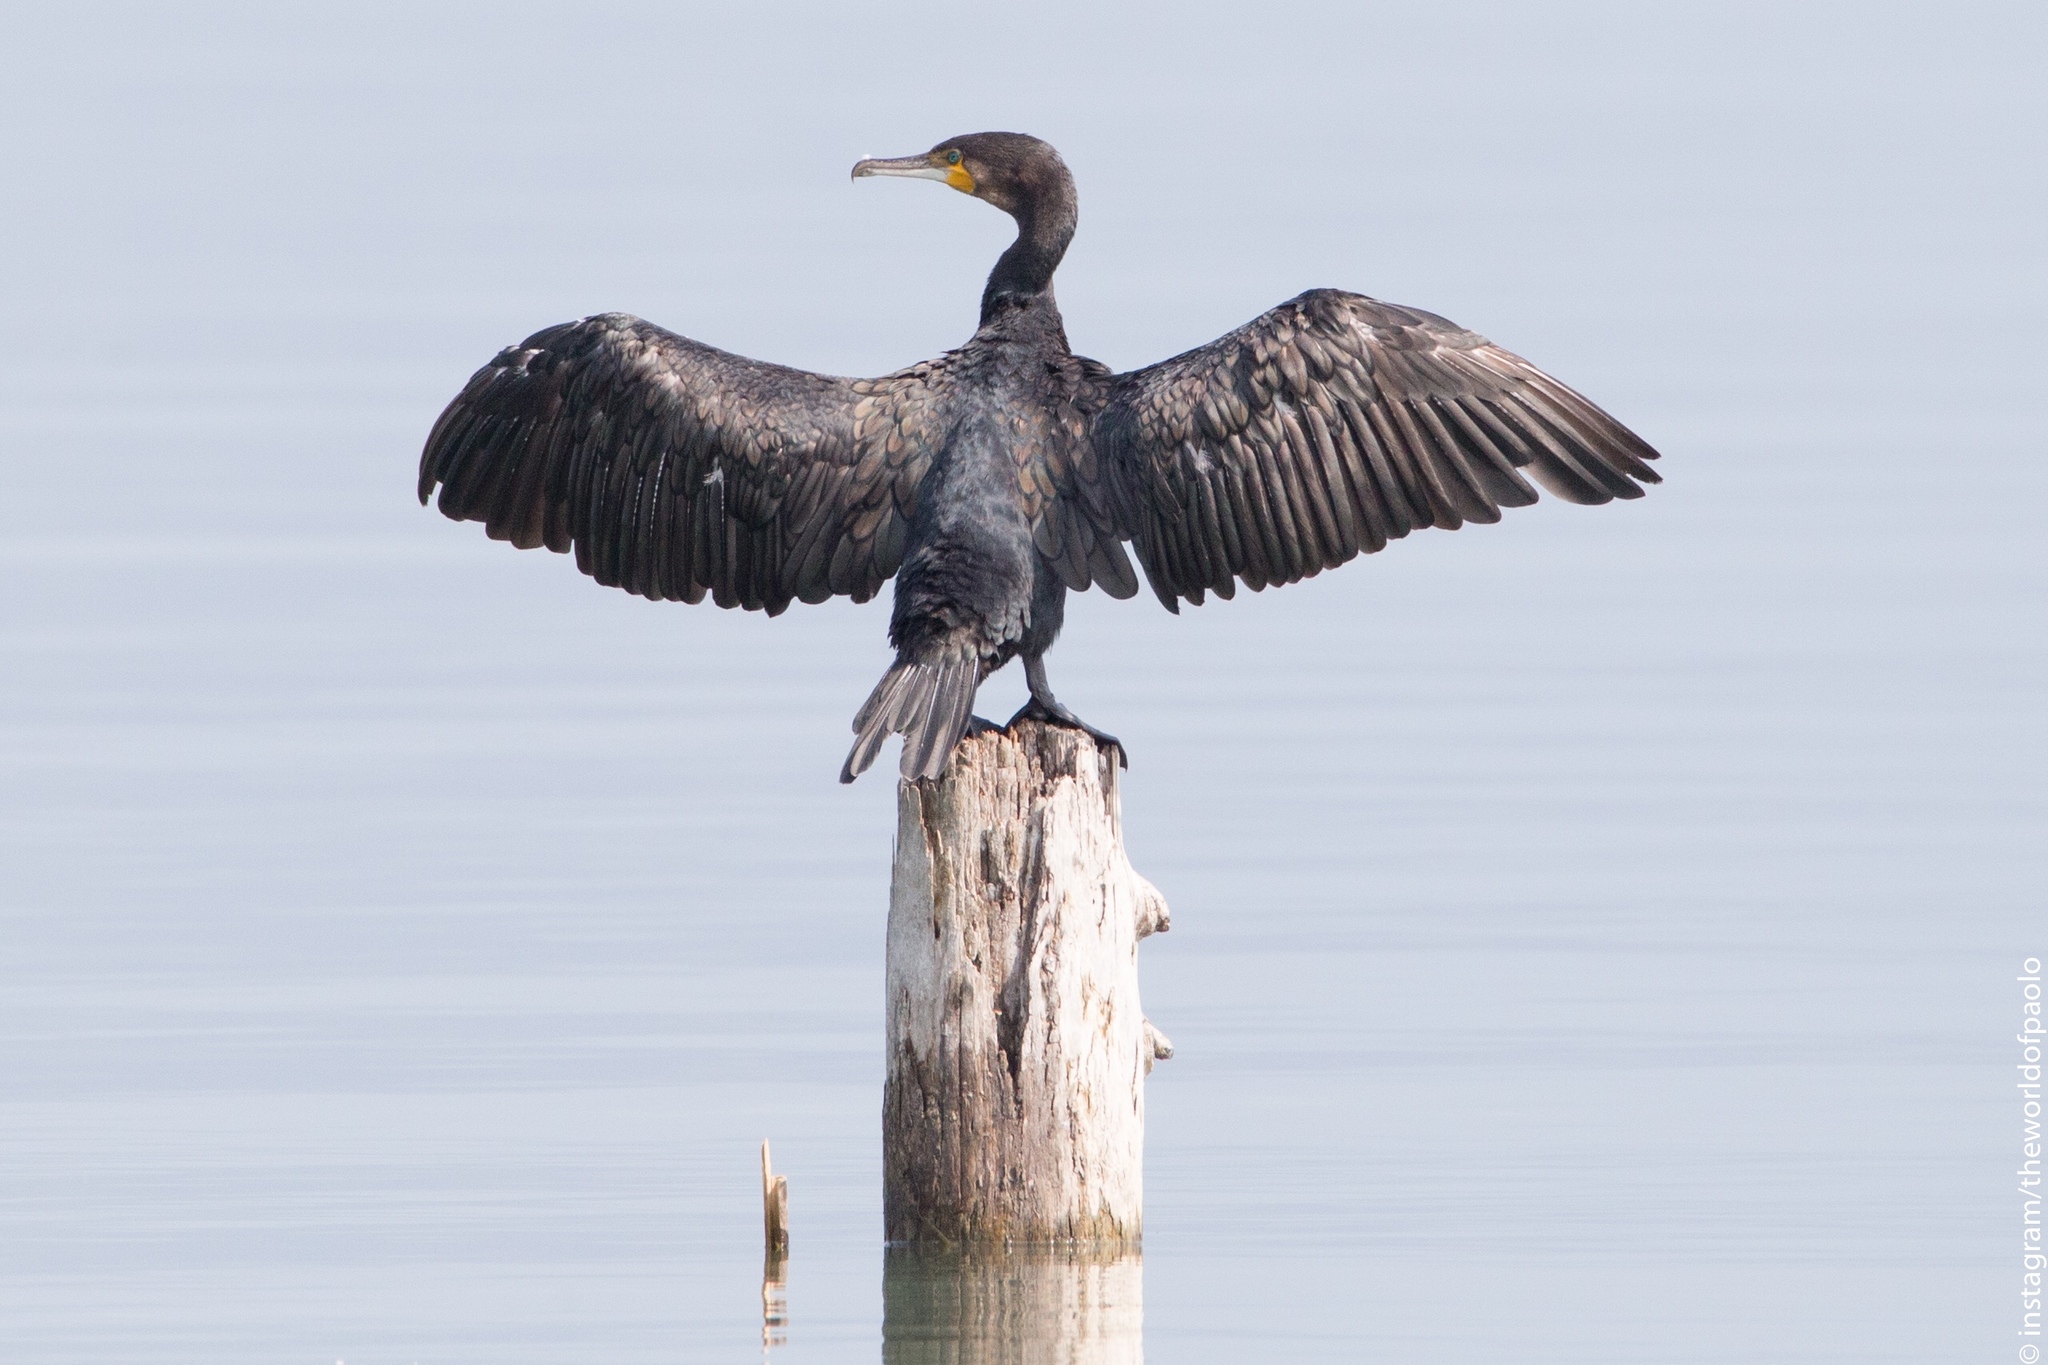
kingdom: Animalia
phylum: Chordata
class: Aves
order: Suliformes
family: Phalacrocoracidae
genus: Phalacrocorax
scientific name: Phalacrocorax carbo
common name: Great cormorant
